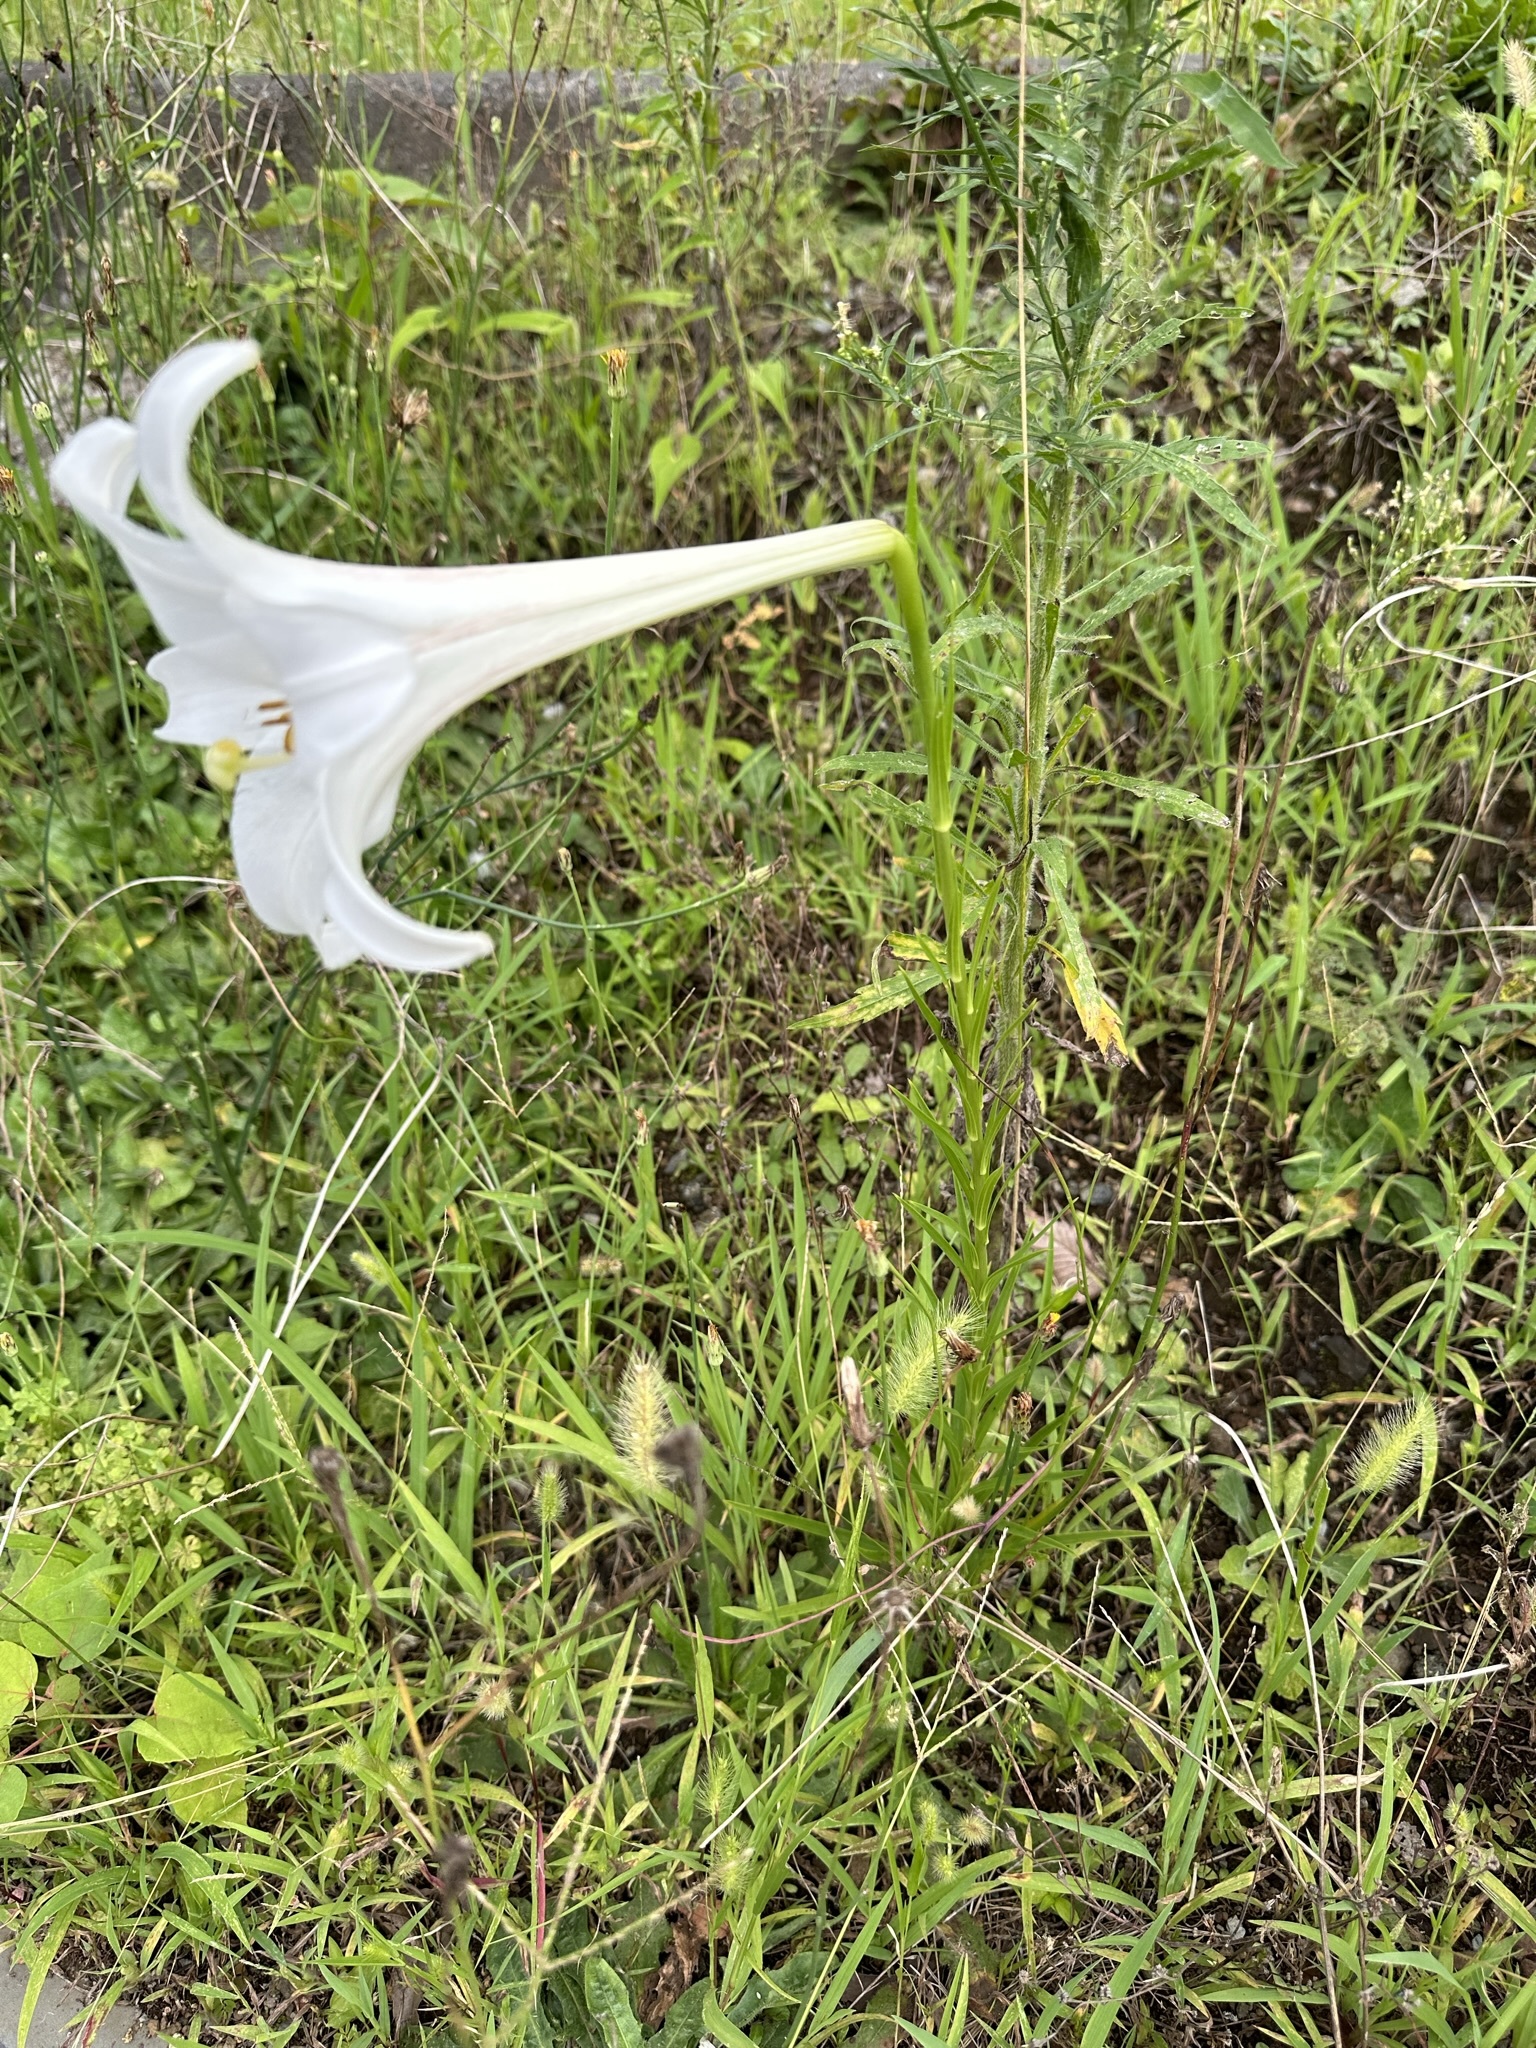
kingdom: Plantae
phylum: Tracheophyta
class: Liliopsida
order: Liliales
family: Liliaceae
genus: Lilium
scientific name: Lilium formosanum
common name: Formosa lily
